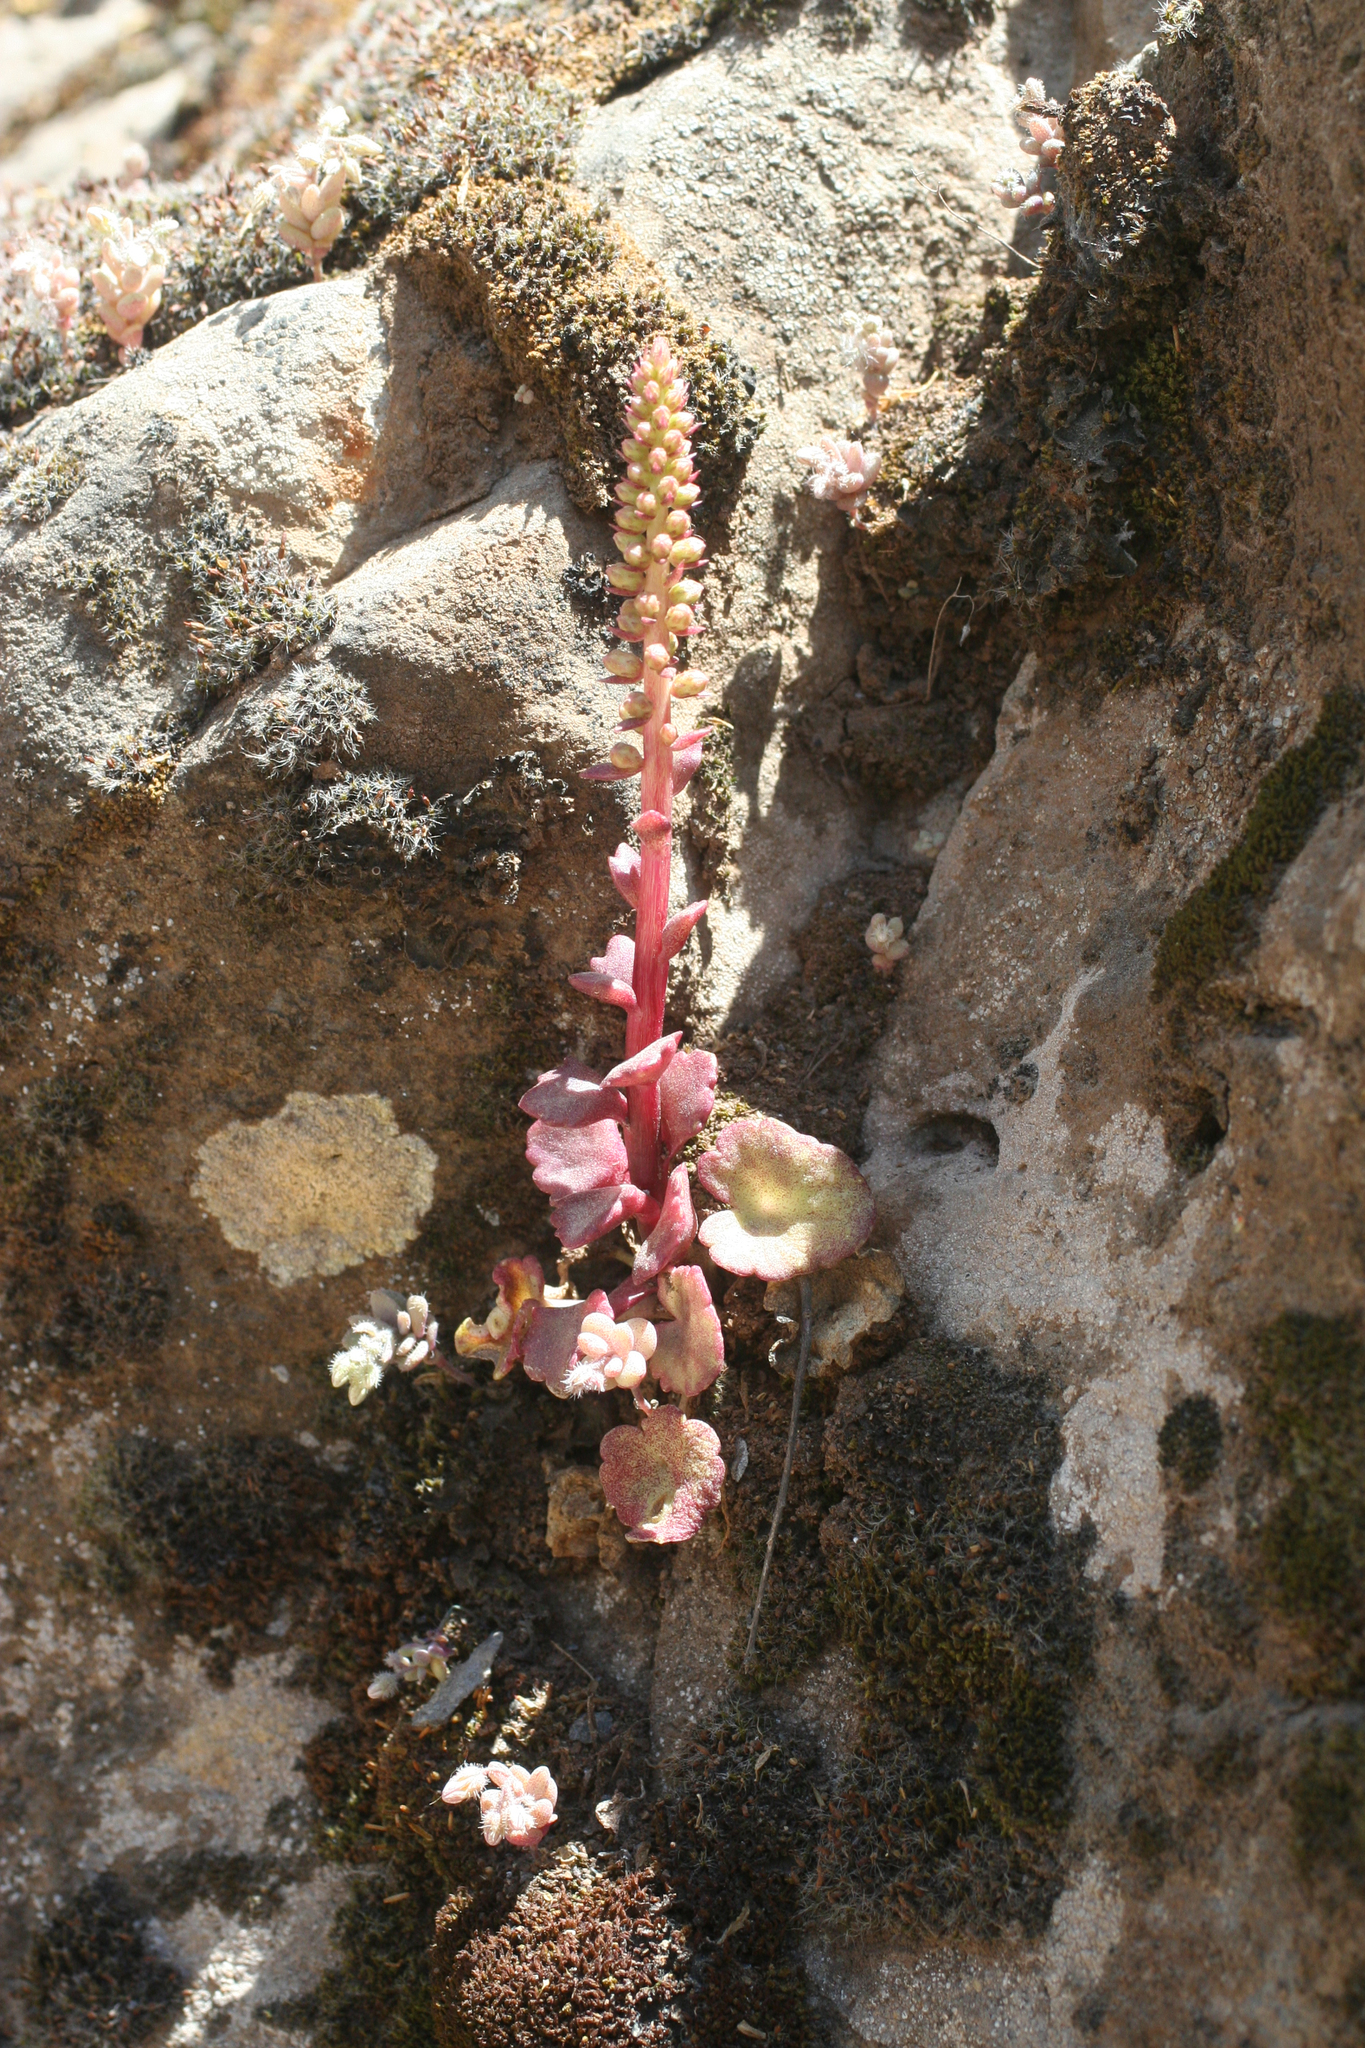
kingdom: Plantae
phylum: Tracheophyta
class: Magnoliopsida
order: Saxifragales
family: Crassulaceae
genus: Umbilicus
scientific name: Umbilicus horizontalis
